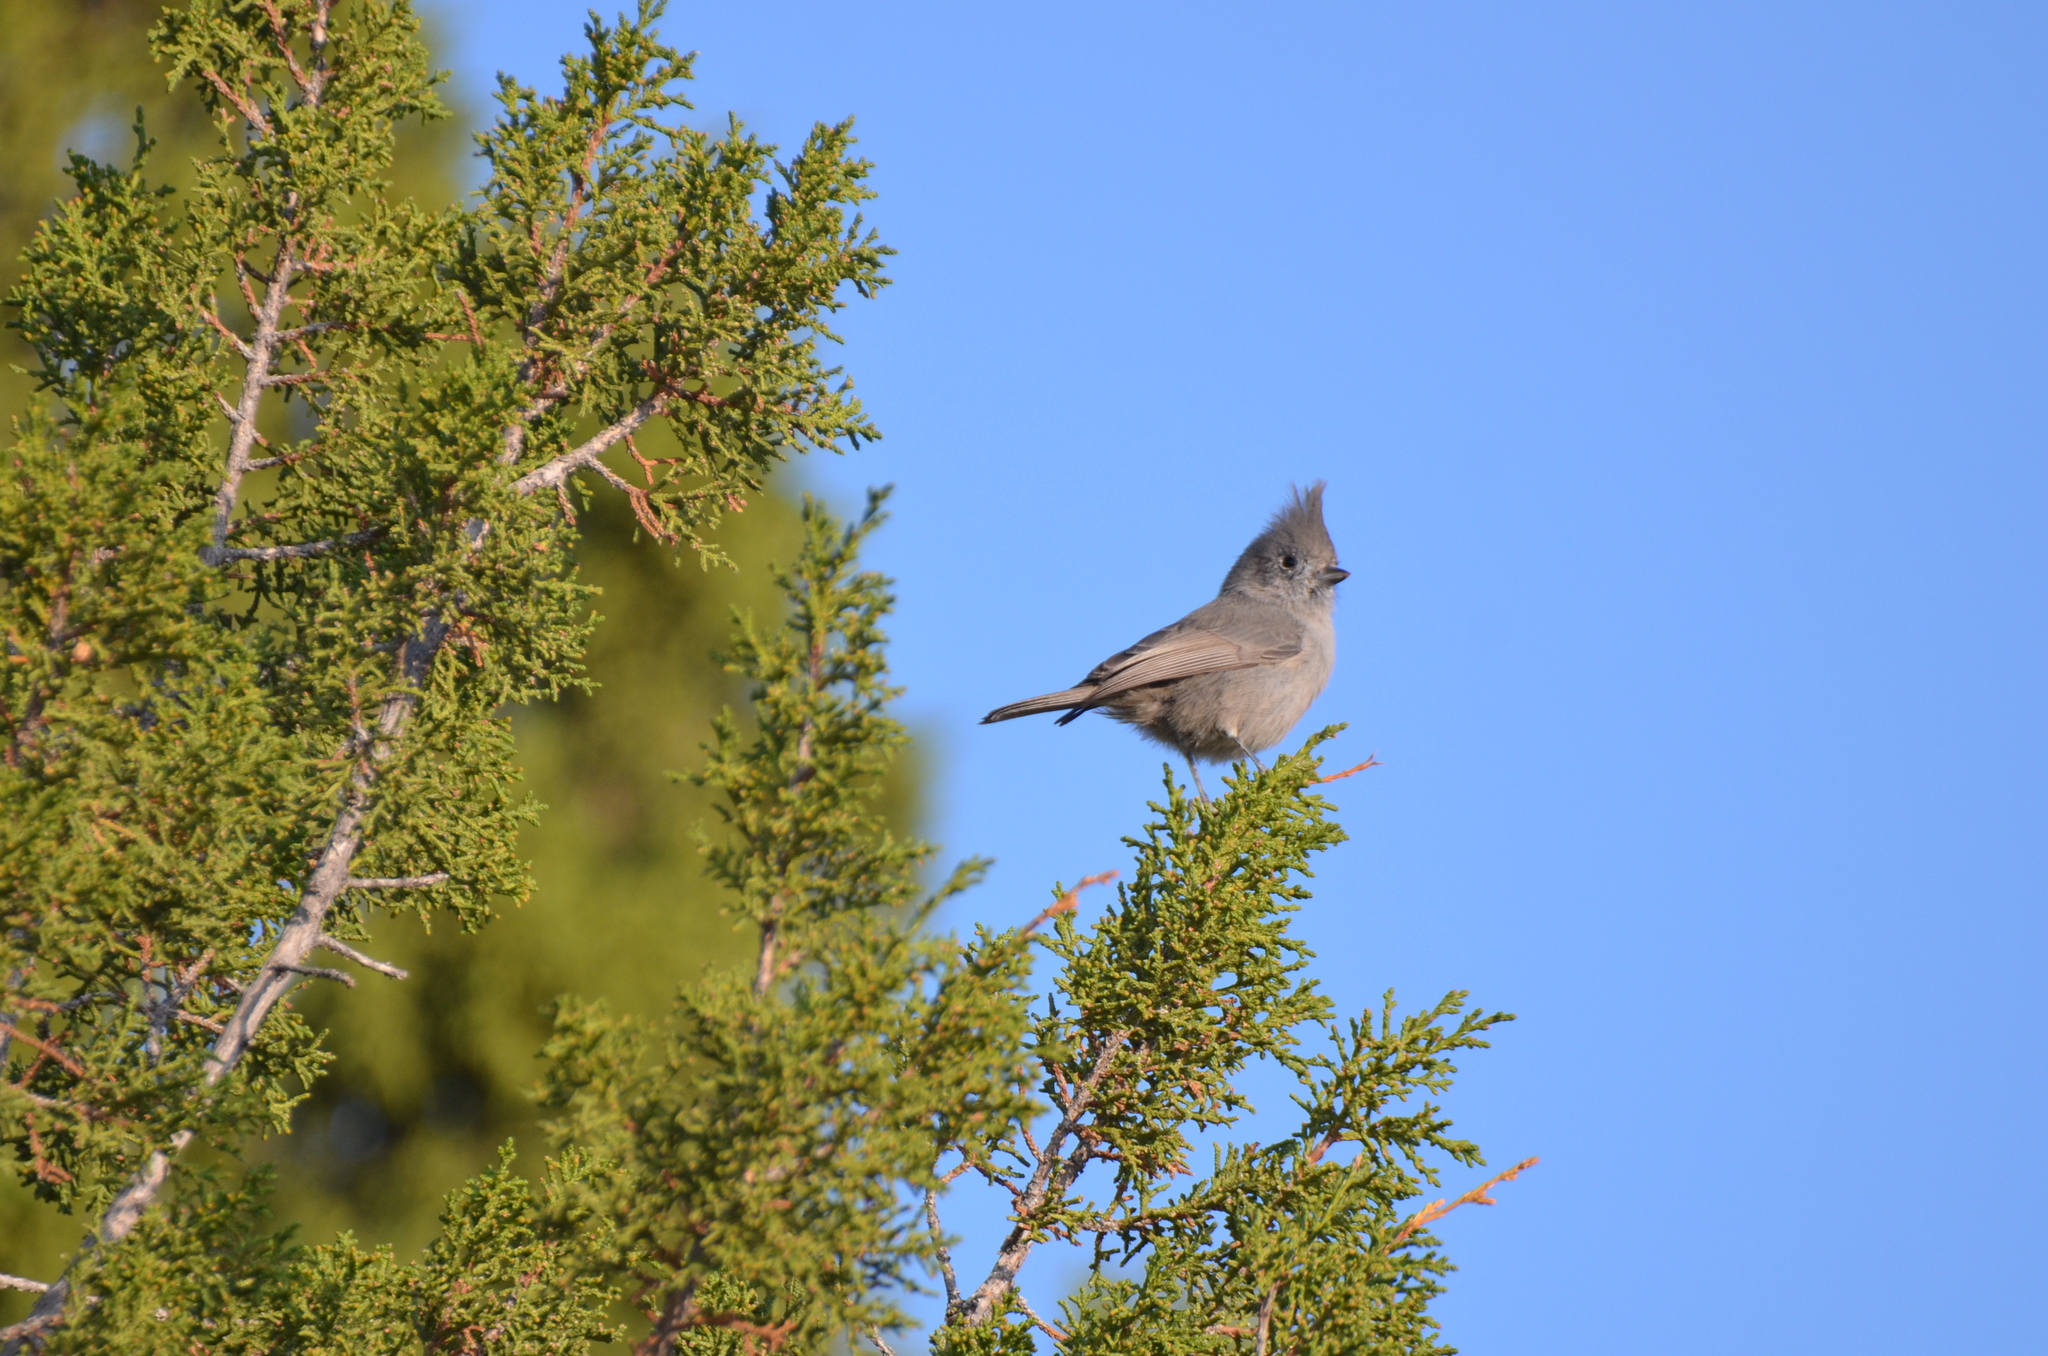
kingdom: Animalia
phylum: Chordata
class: Aves
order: Passeriformes
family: Paridae
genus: Baeolophus
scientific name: Baeolophus ridgwayi
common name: Juniper titmouse
